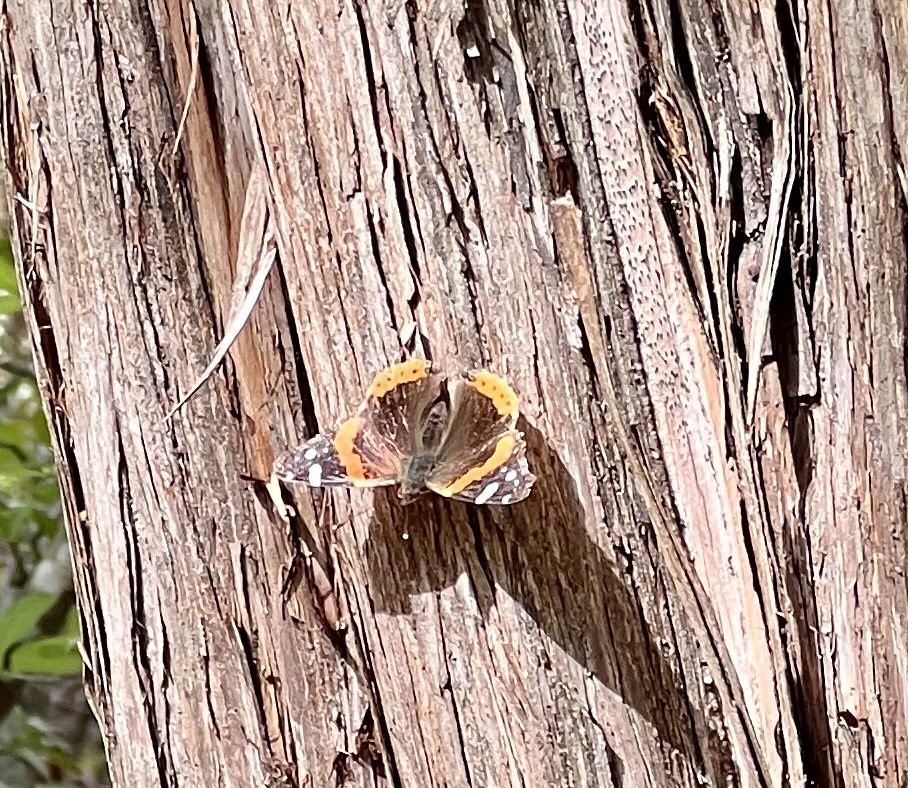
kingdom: Animalia
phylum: Arthropoda
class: Insecta
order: Lepidoptera
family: Nymphalidae
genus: Vanessa
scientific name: Vanessa atalanta
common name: Red admiral
